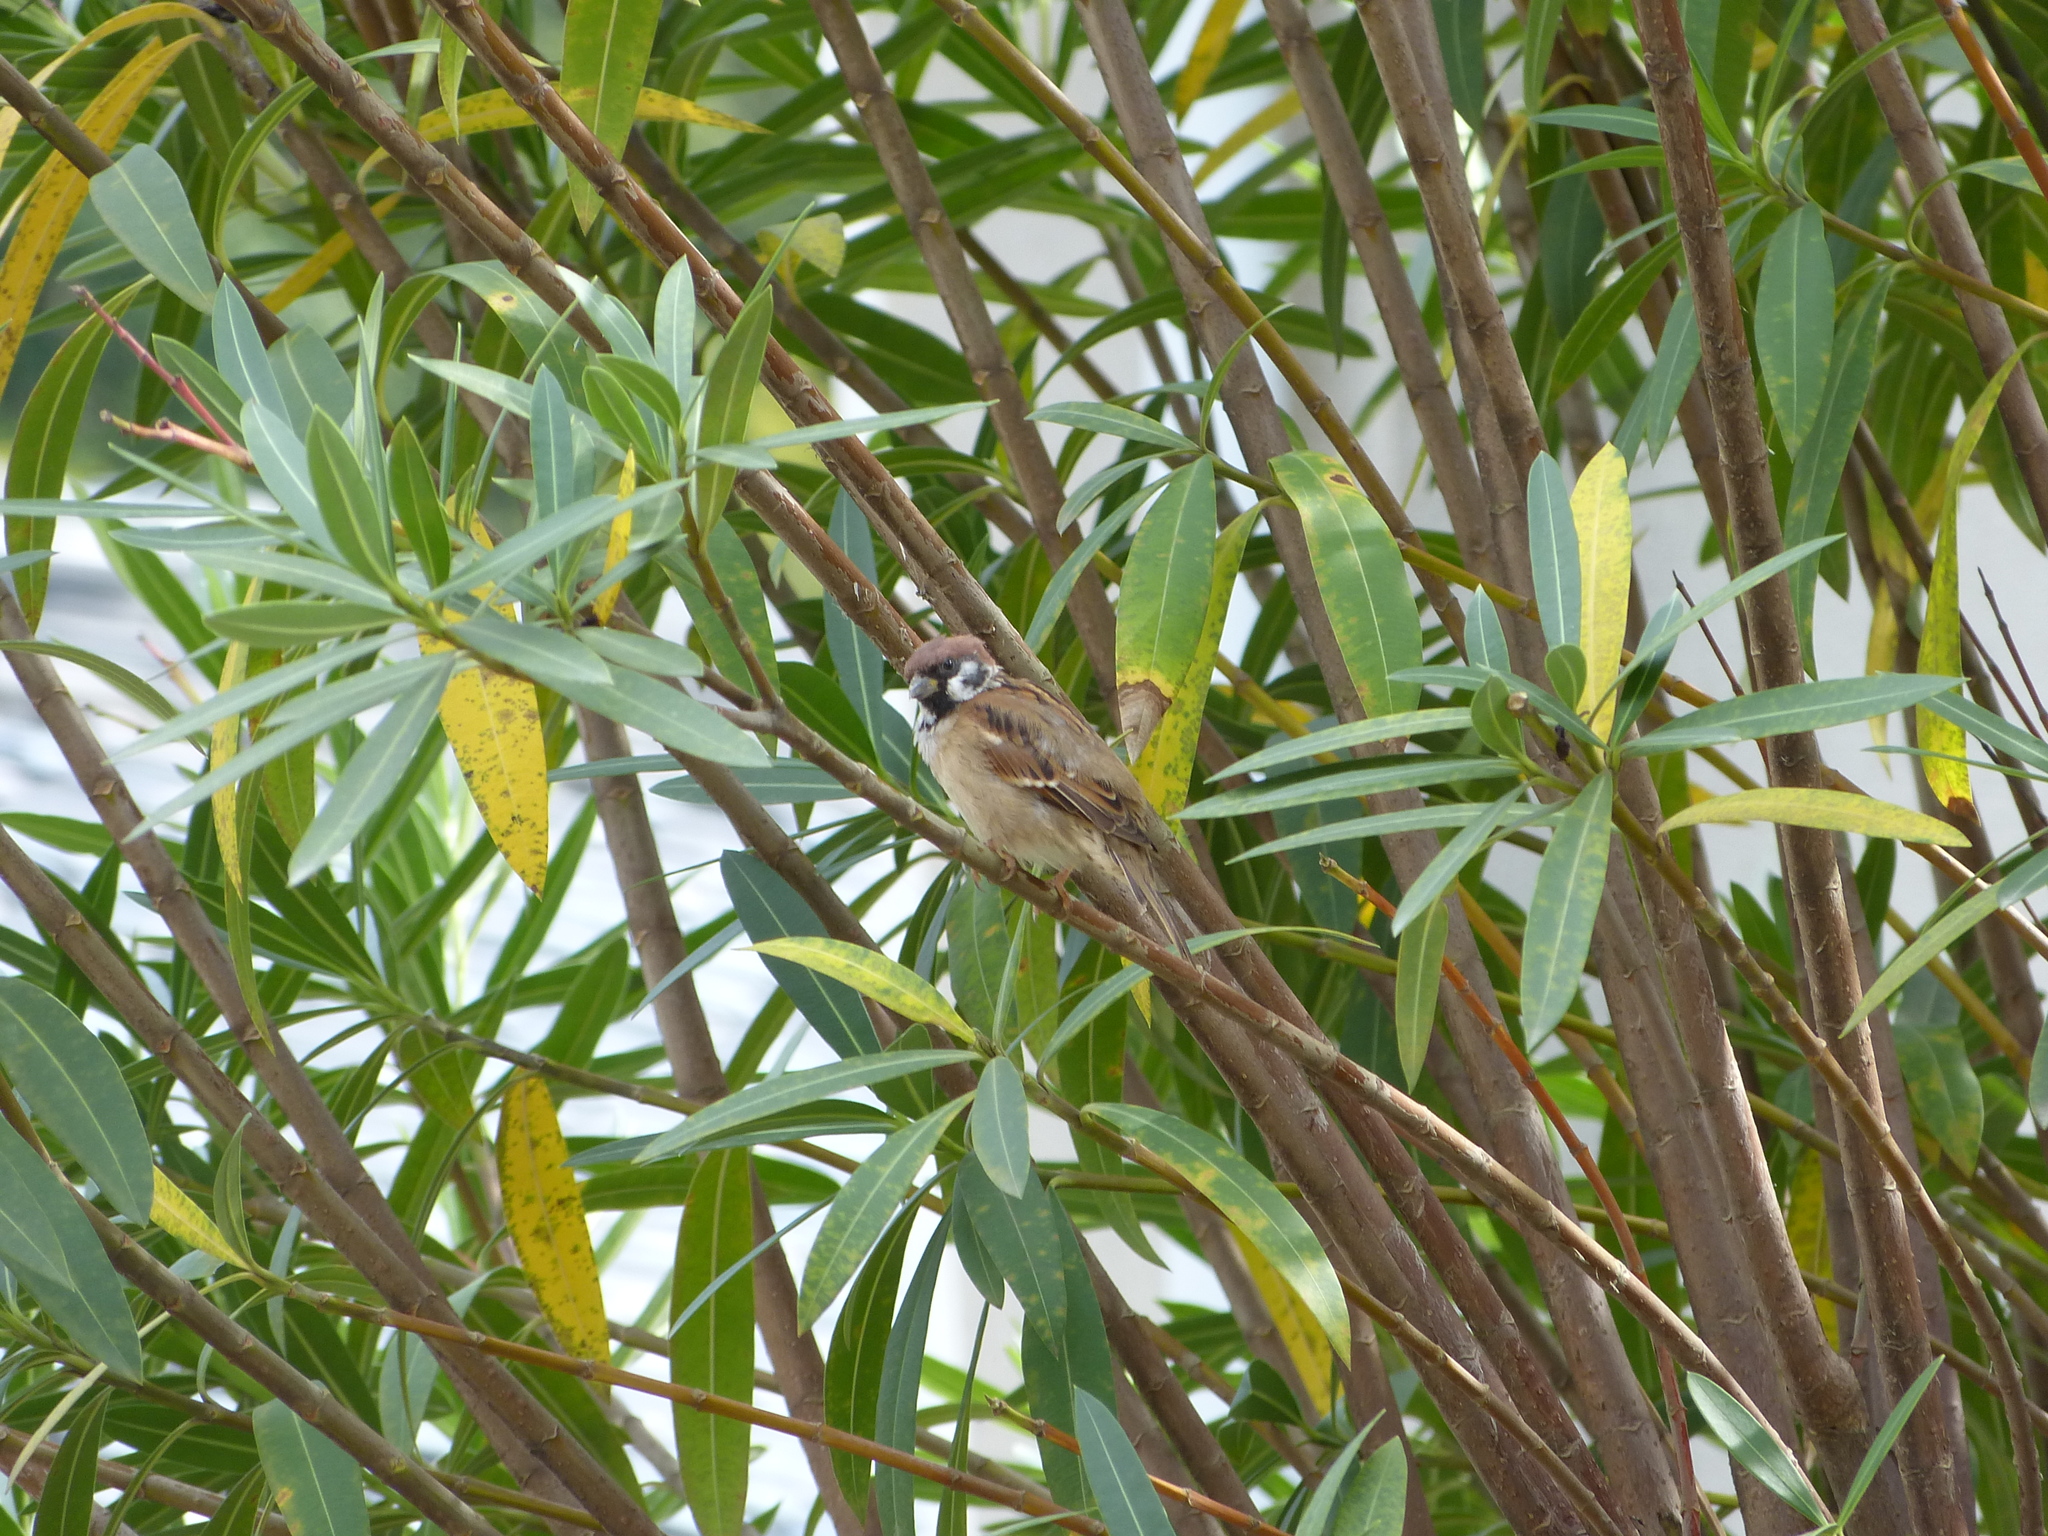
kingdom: Animalia
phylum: Chordata
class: Aves
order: Passeriformes
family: Passeridae
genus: Passer
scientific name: Passer montanus
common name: Eurasian tree sparrow
